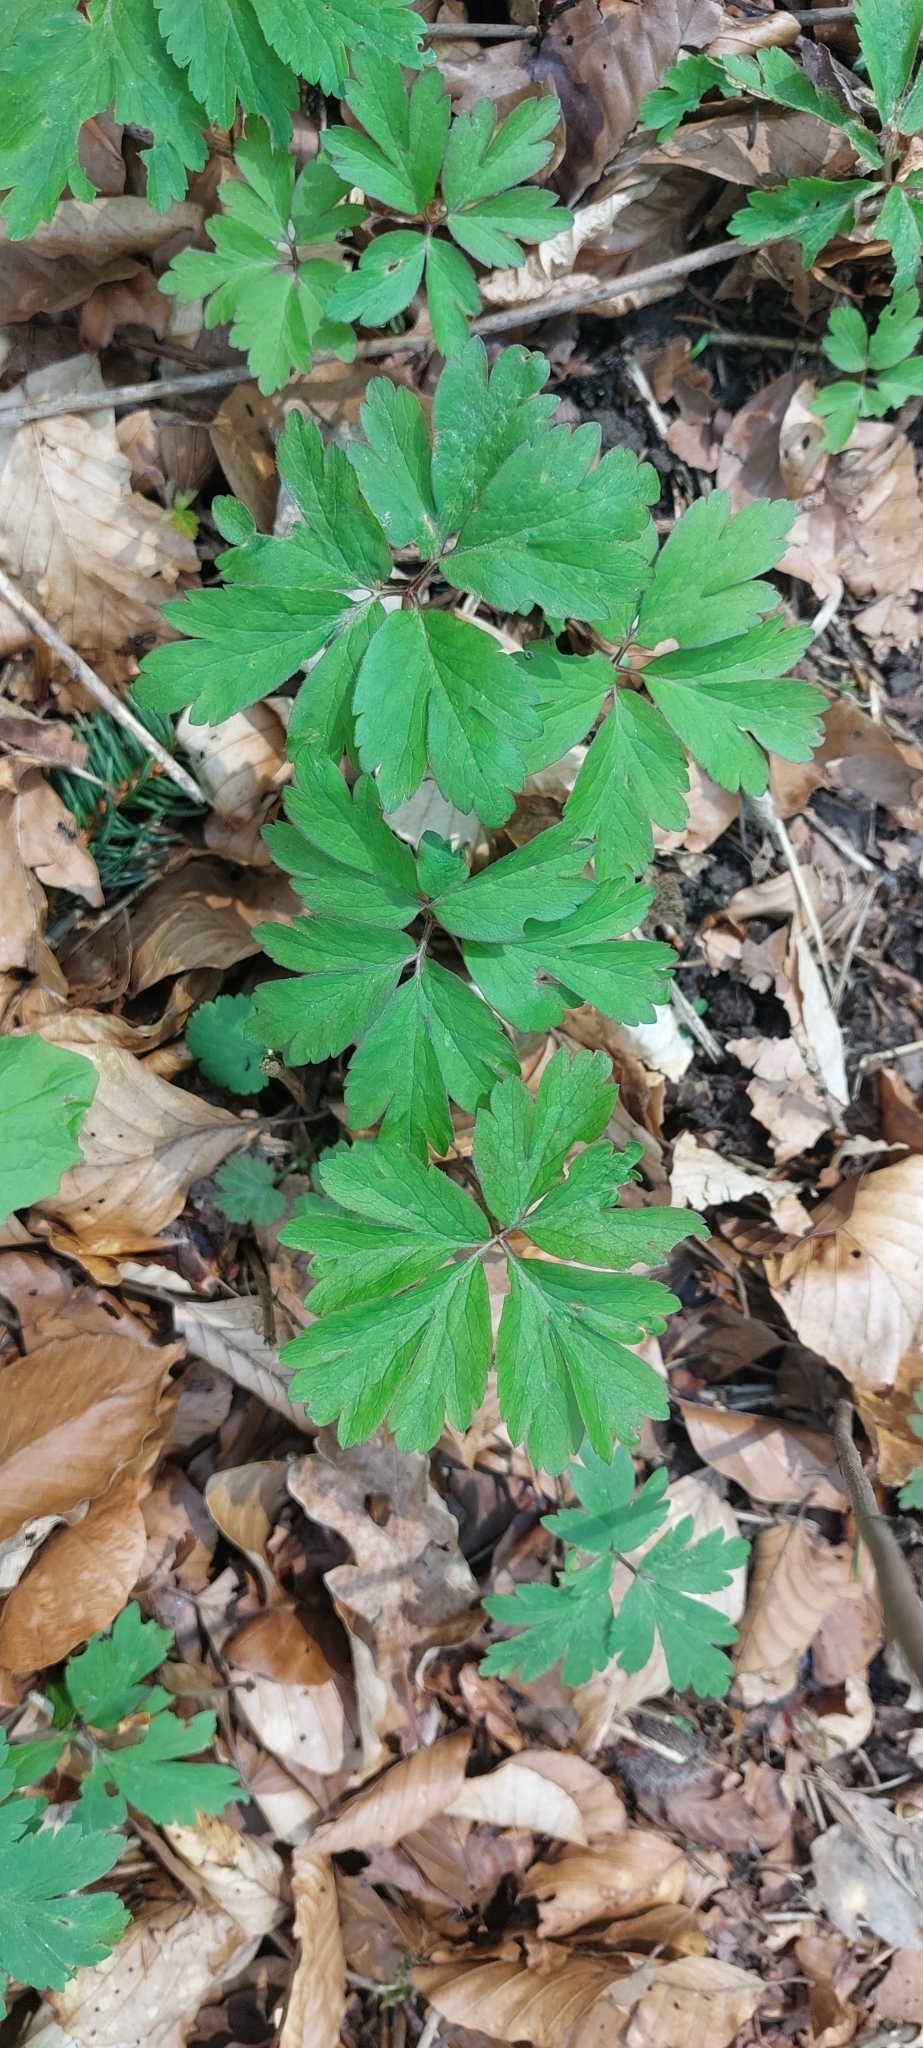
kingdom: Plantae
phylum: Tracheophyta
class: Magnoliopsida
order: Ranunculales
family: Ranunculaceae
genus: Anemone
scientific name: Anemone nemorosa
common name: Wood anemone
